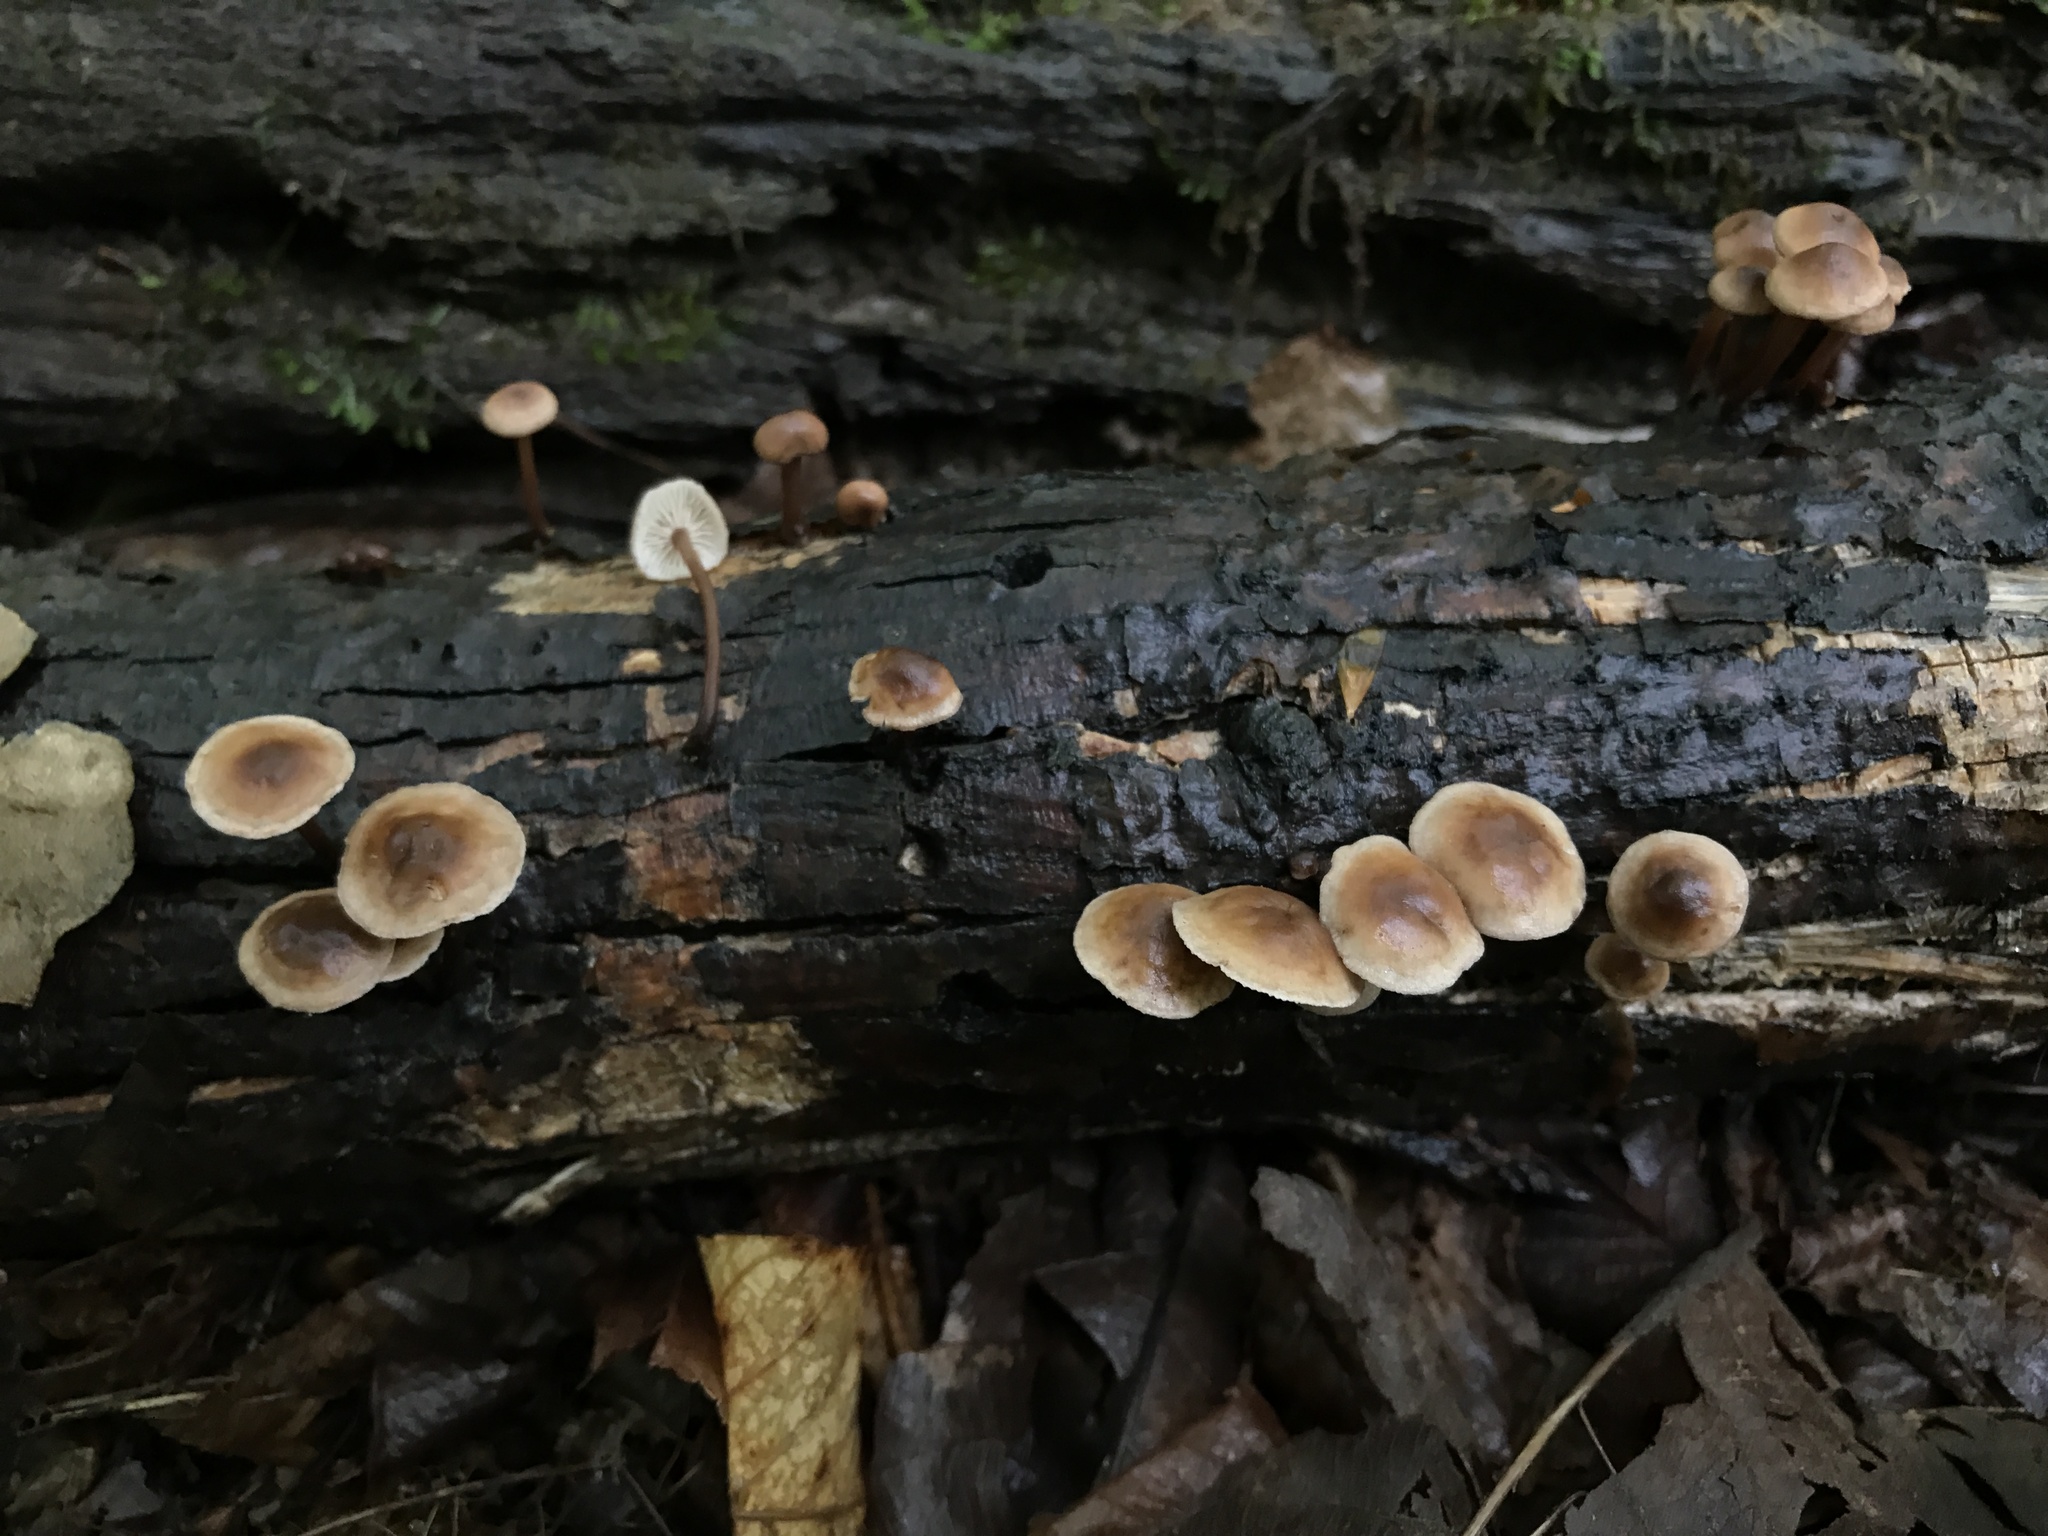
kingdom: Fungi
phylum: Basidiomycota
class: Agaricomycetes
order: Agaricales
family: Omphalotaceae
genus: Collybiopsis
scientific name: Collybiopsis subnuda
